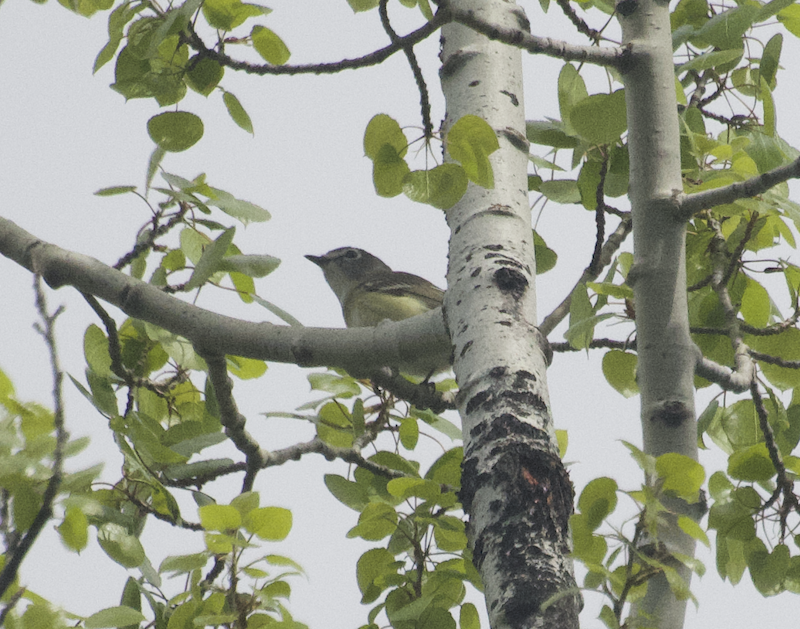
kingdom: Animalia
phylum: Chordata
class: Aves
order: Passeriformes
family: Vireonidae
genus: Vireo
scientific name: Vireo cassinii
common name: Cassin's vireo
